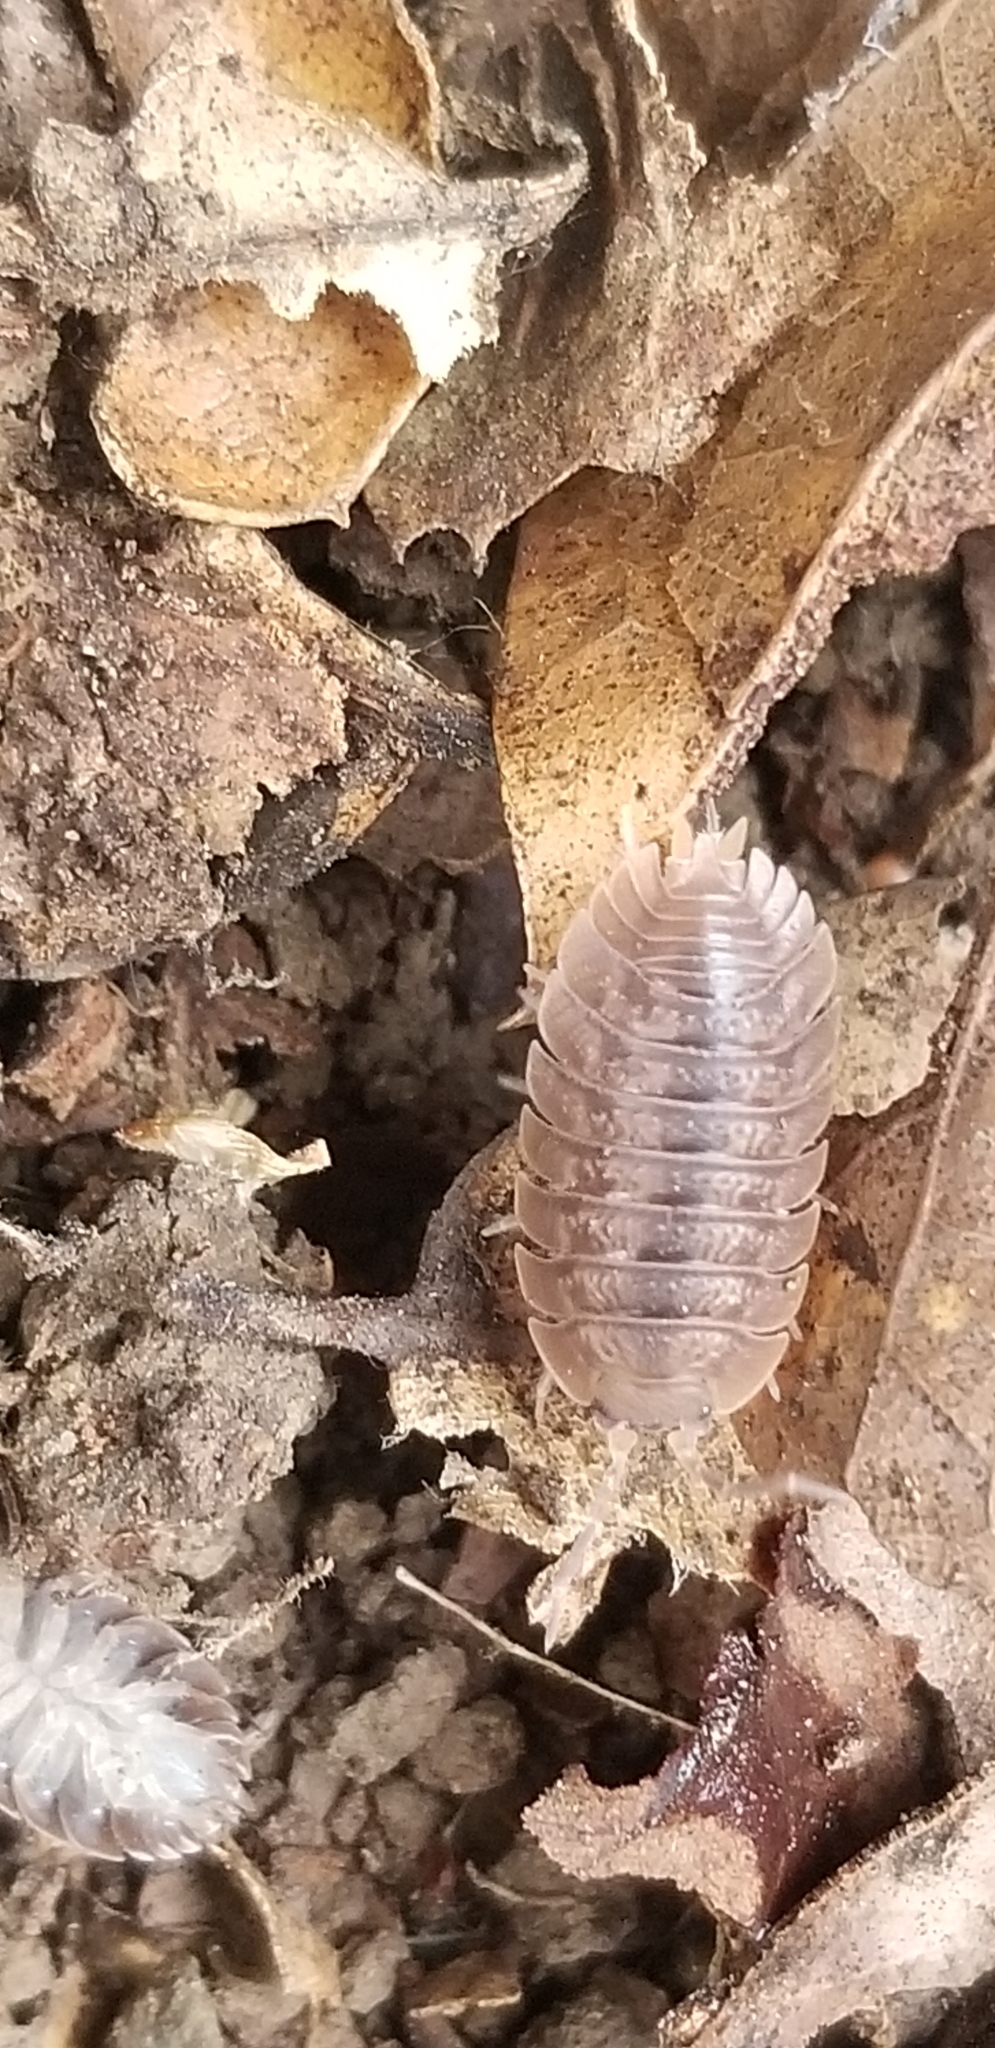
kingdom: Animalia
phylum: Arthropoda
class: Malacostraca
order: Isopoda
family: Porcellionidae
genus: Porcellio
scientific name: Porcellio dilatatus
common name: Isopod
